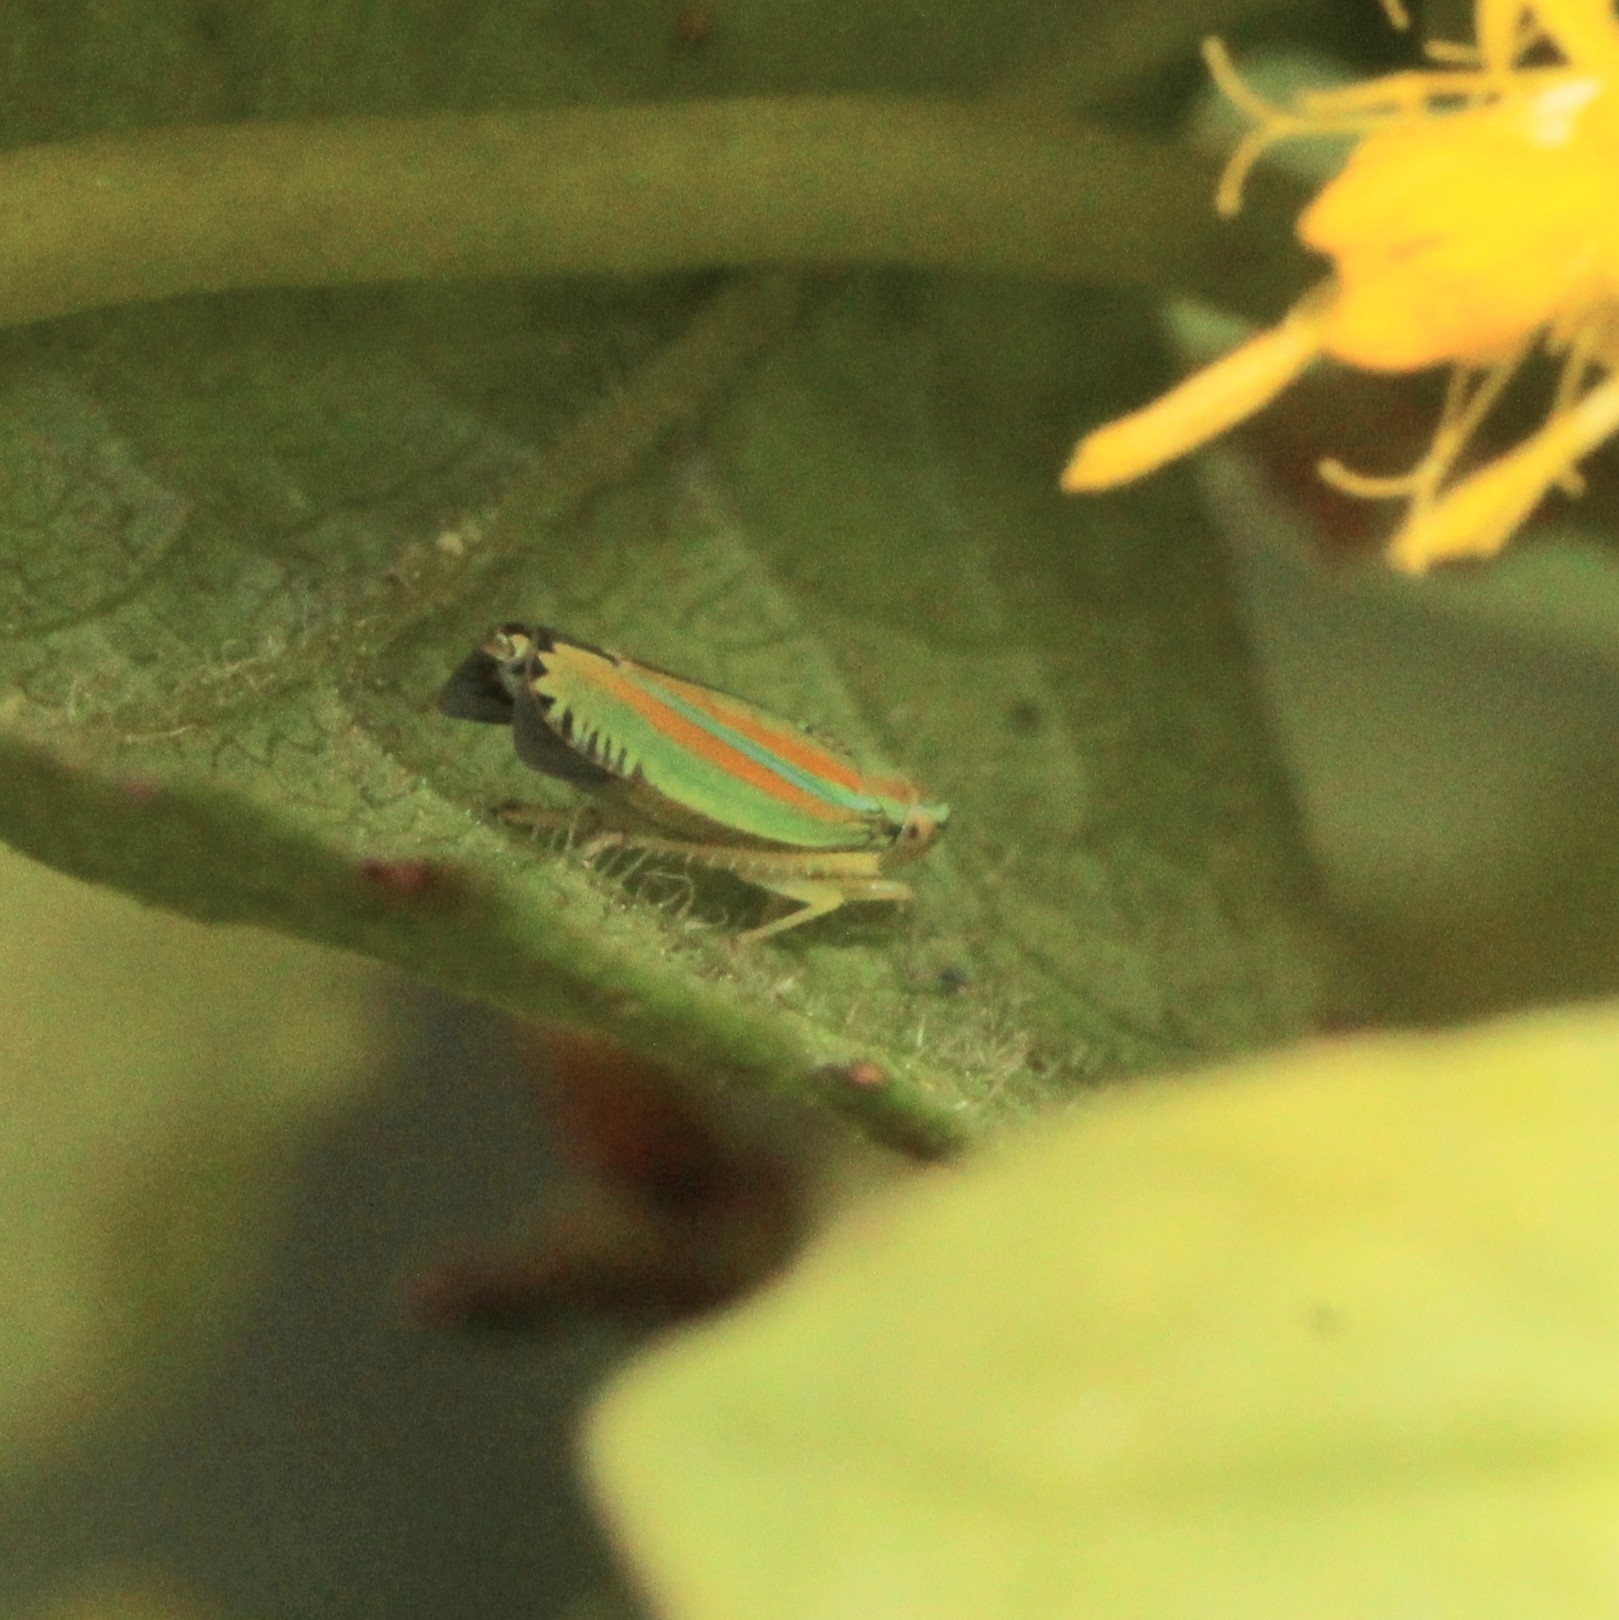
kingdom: Animalia
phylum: Arthropoda
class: Insecta
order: Hemiptera
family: Cicadellidae
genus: Graphocephala
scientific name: Graphocephala versuta
